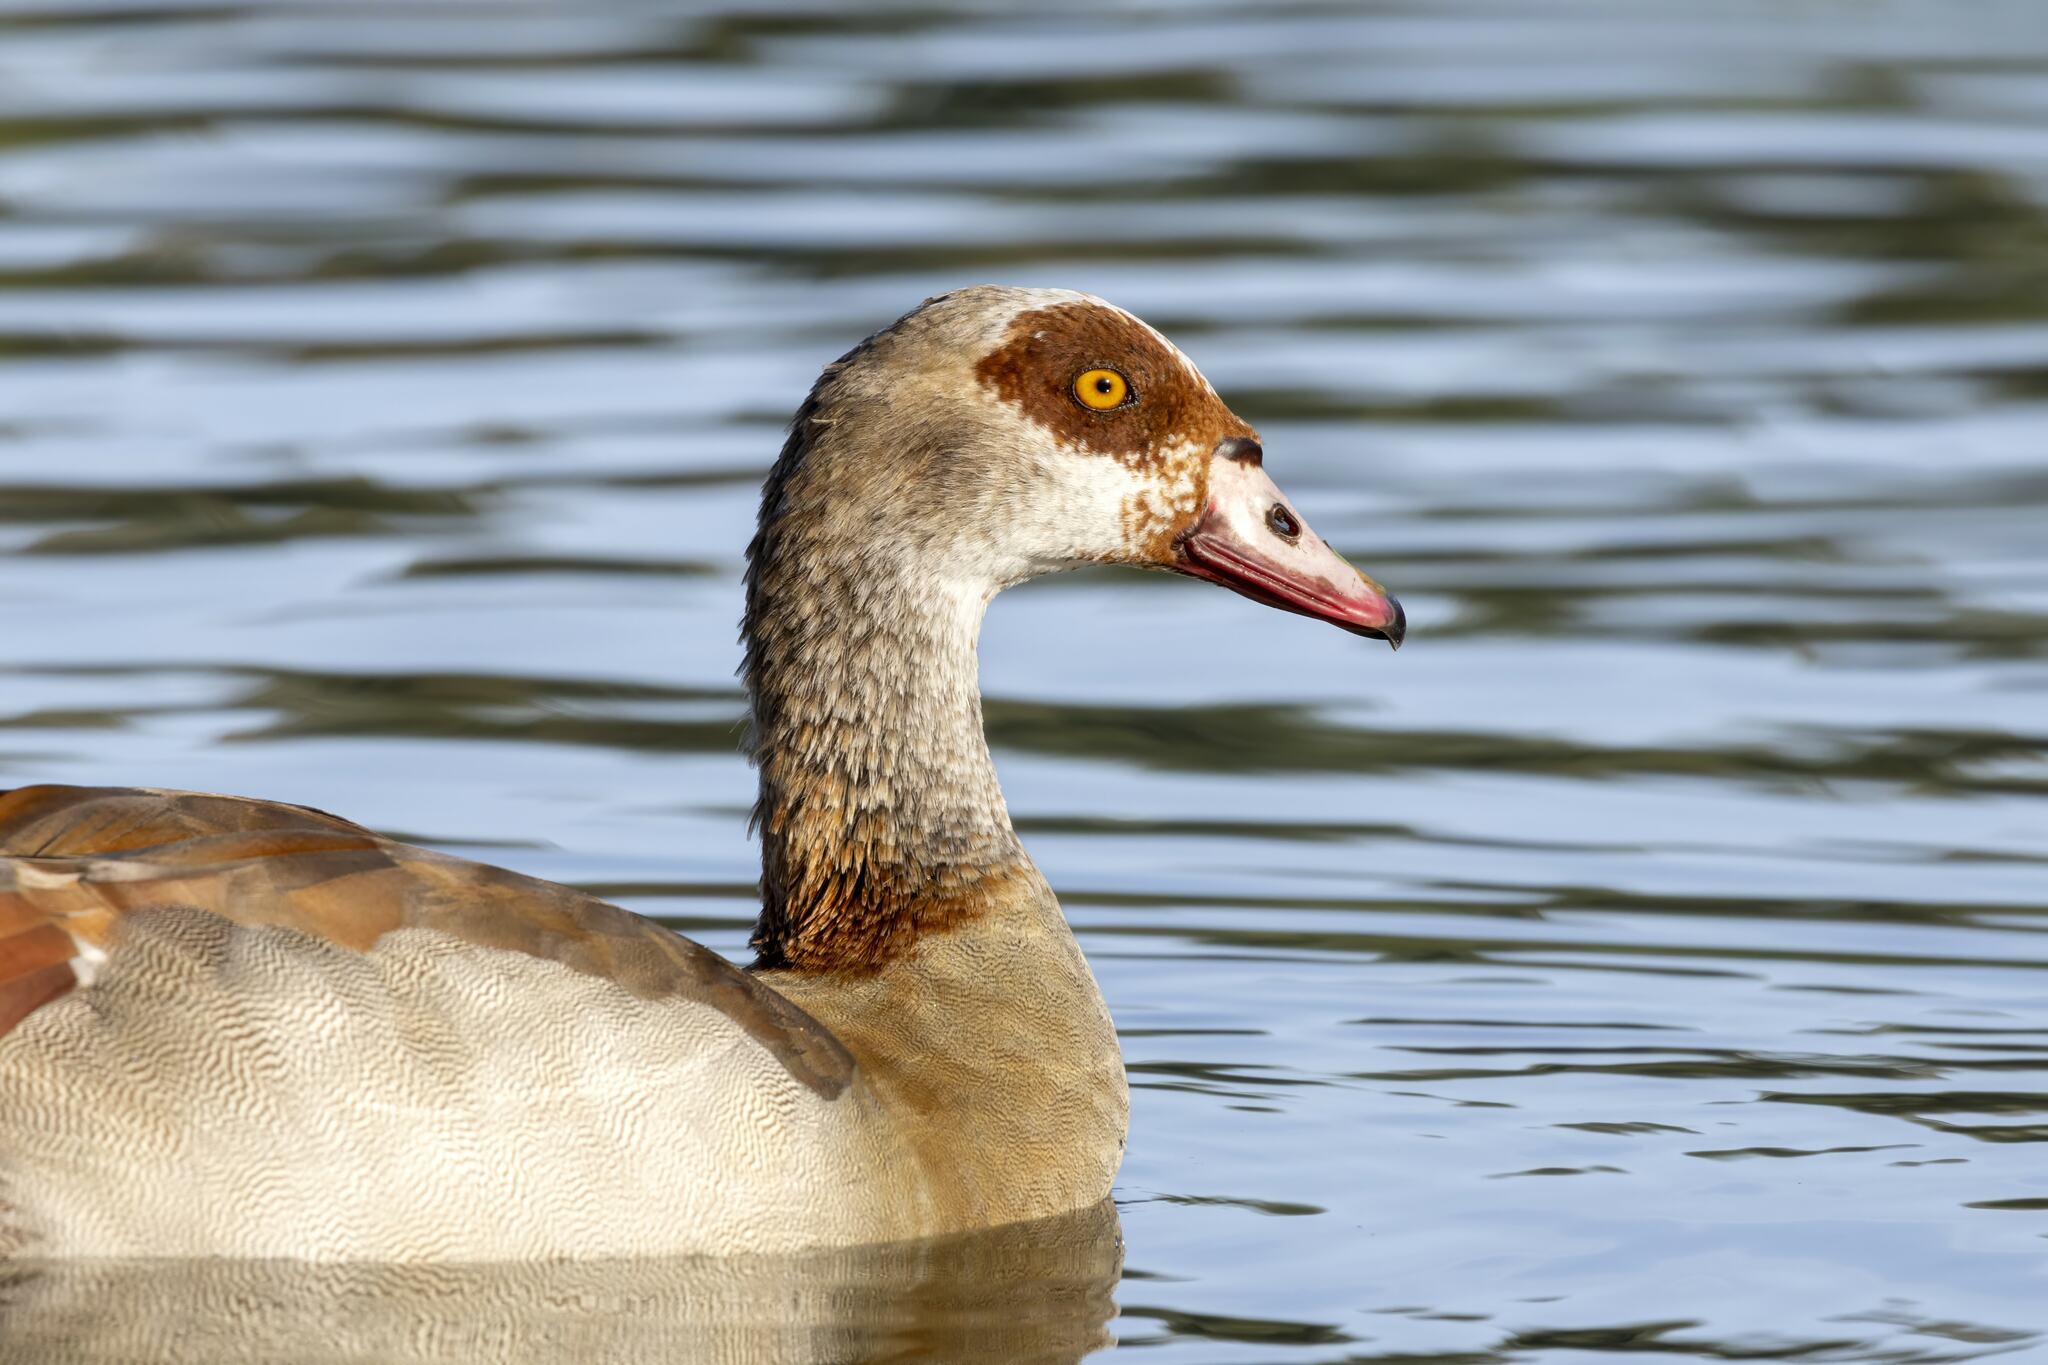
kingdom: Animalia
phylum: Chordata
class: Aves
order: Anseriformes
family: Anatidae
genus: Alopochen
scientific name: Alopochen aegyptiaca
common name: Egyptian goose
